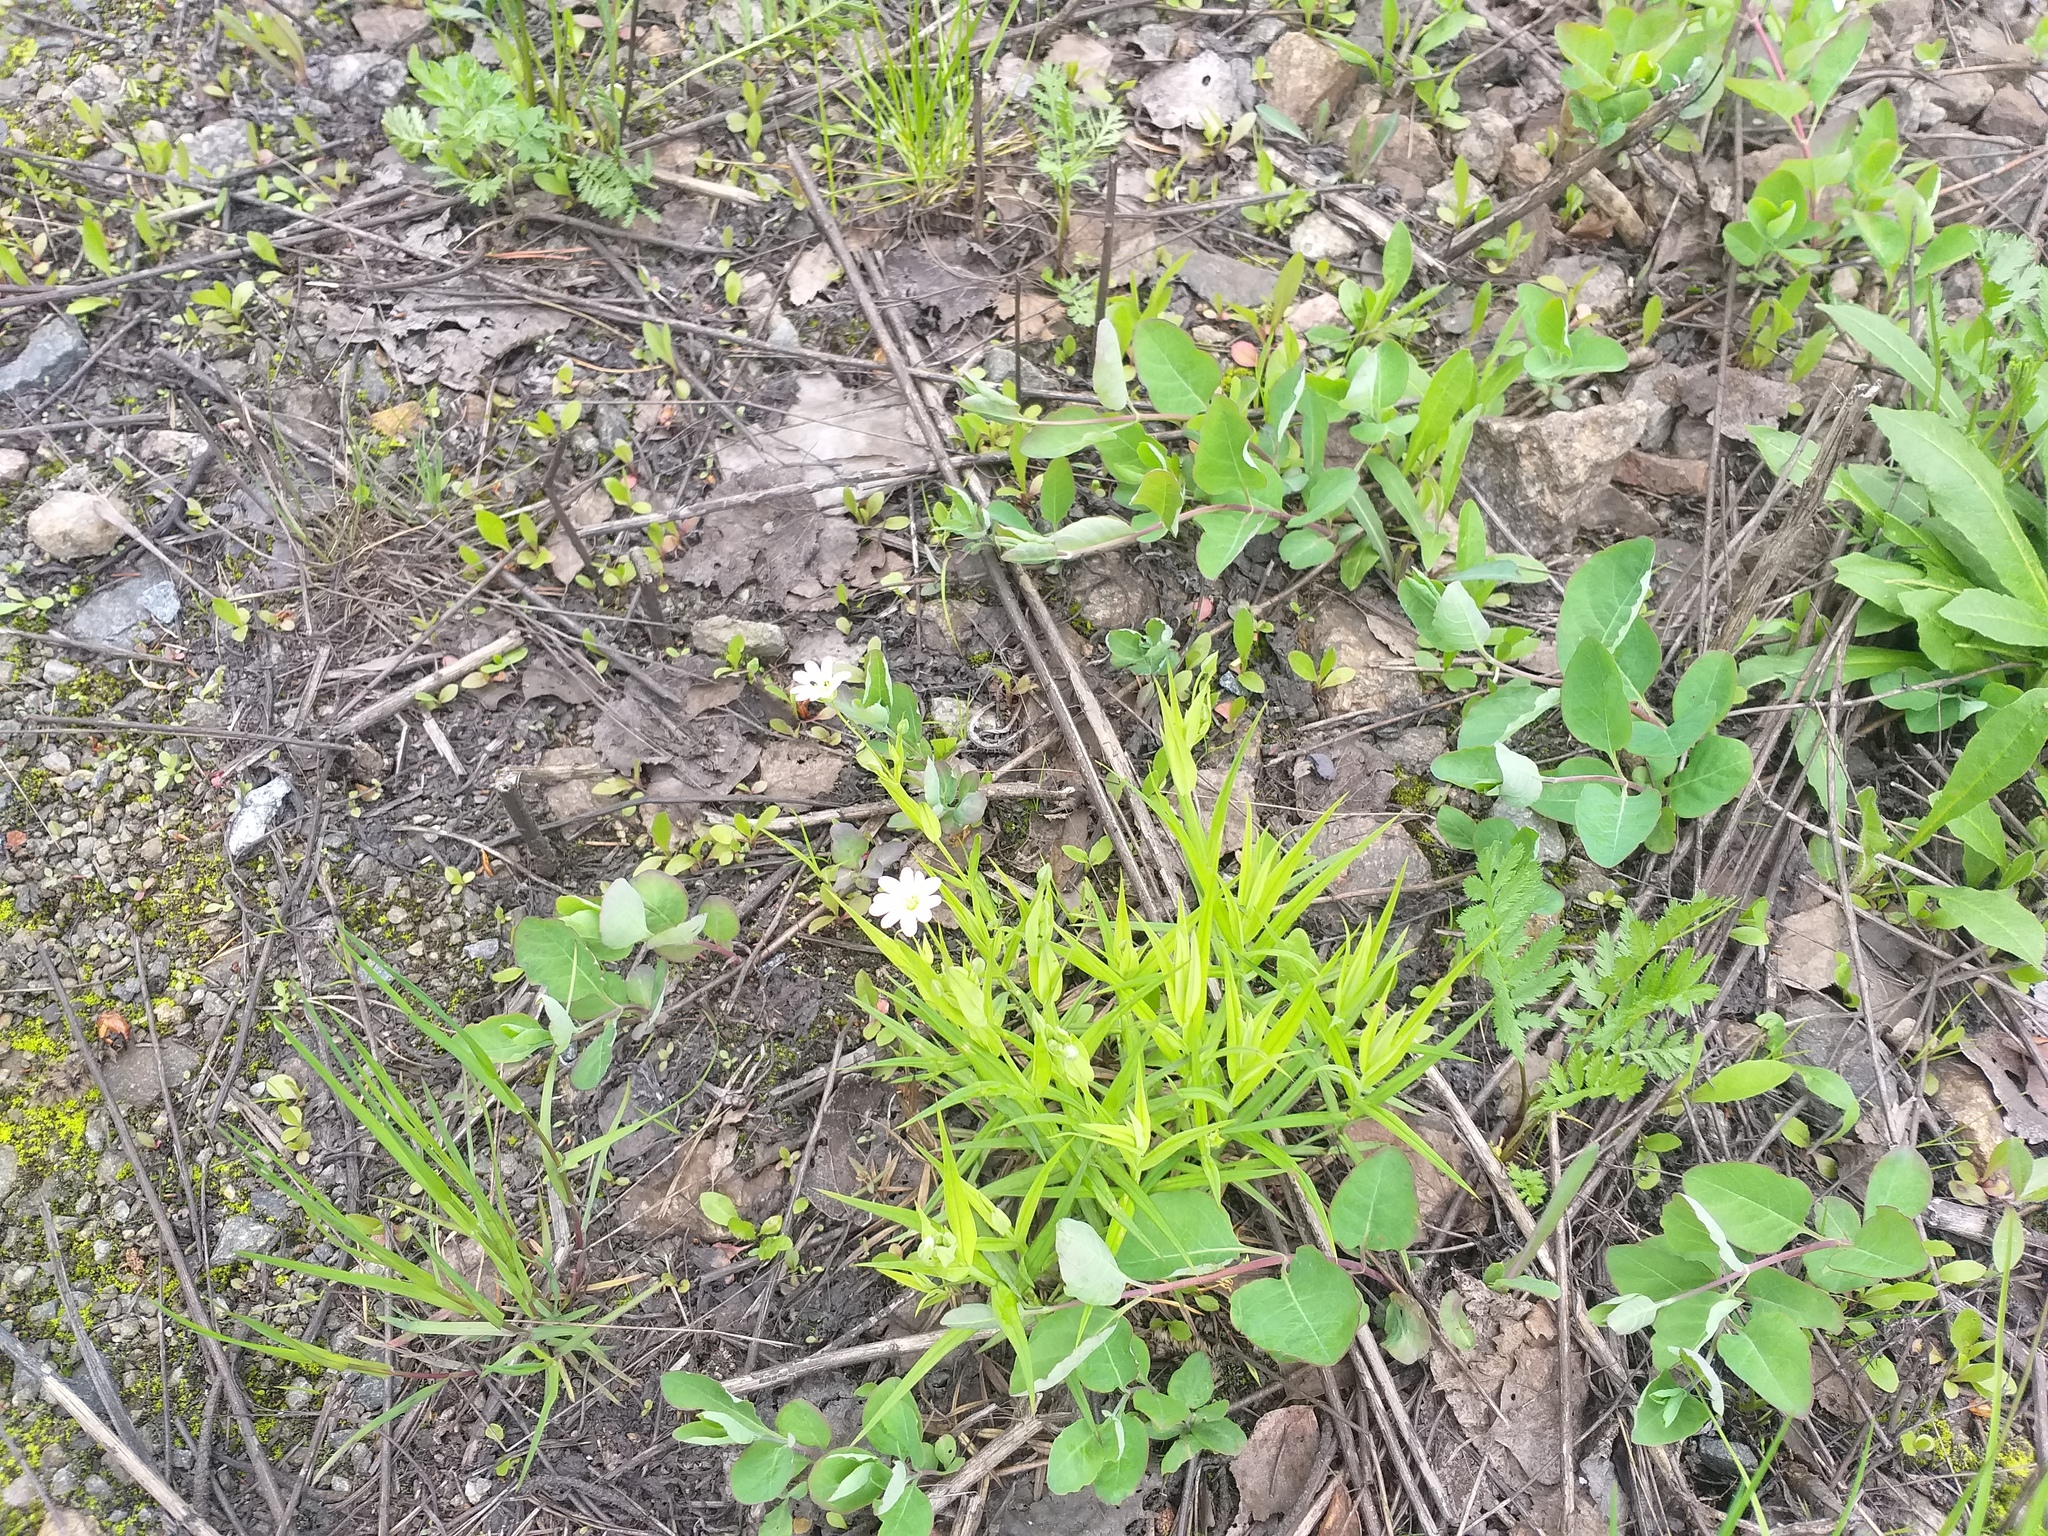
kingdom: Plantae
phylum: Tracheophyta
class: Magnoliopsida
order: Caryophyllales
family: Caryophyllaceae
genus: Rabelera
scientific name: Rabelera holostea
